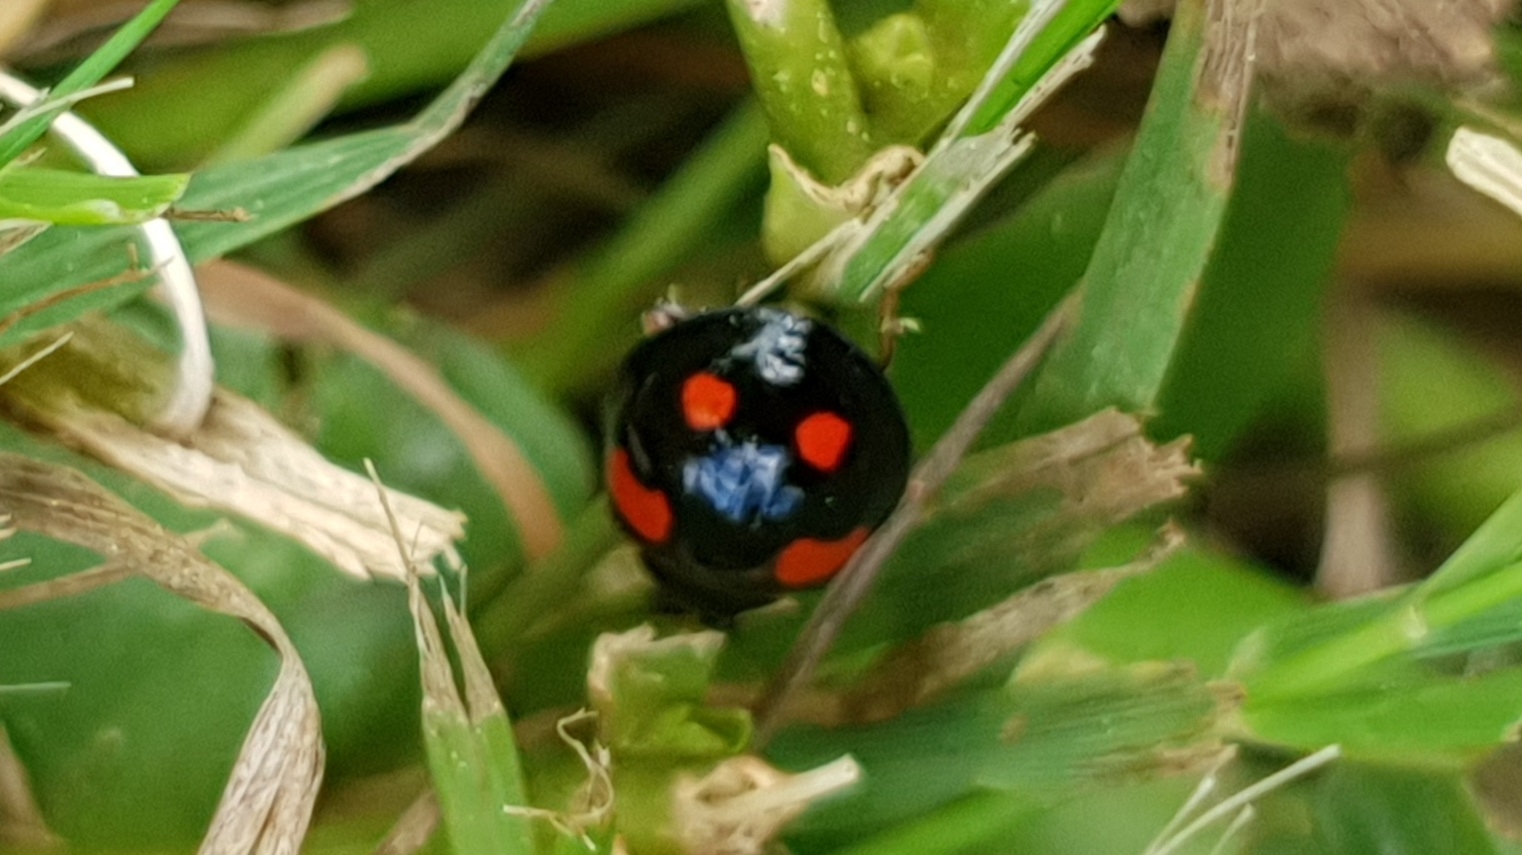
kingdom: Animalia
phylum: Arthropoda
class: Insecta
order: Coleoptera
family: Coccinellidae
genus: Harmonia
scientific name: Harmonia axyridis
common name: Harlequin ladybird
